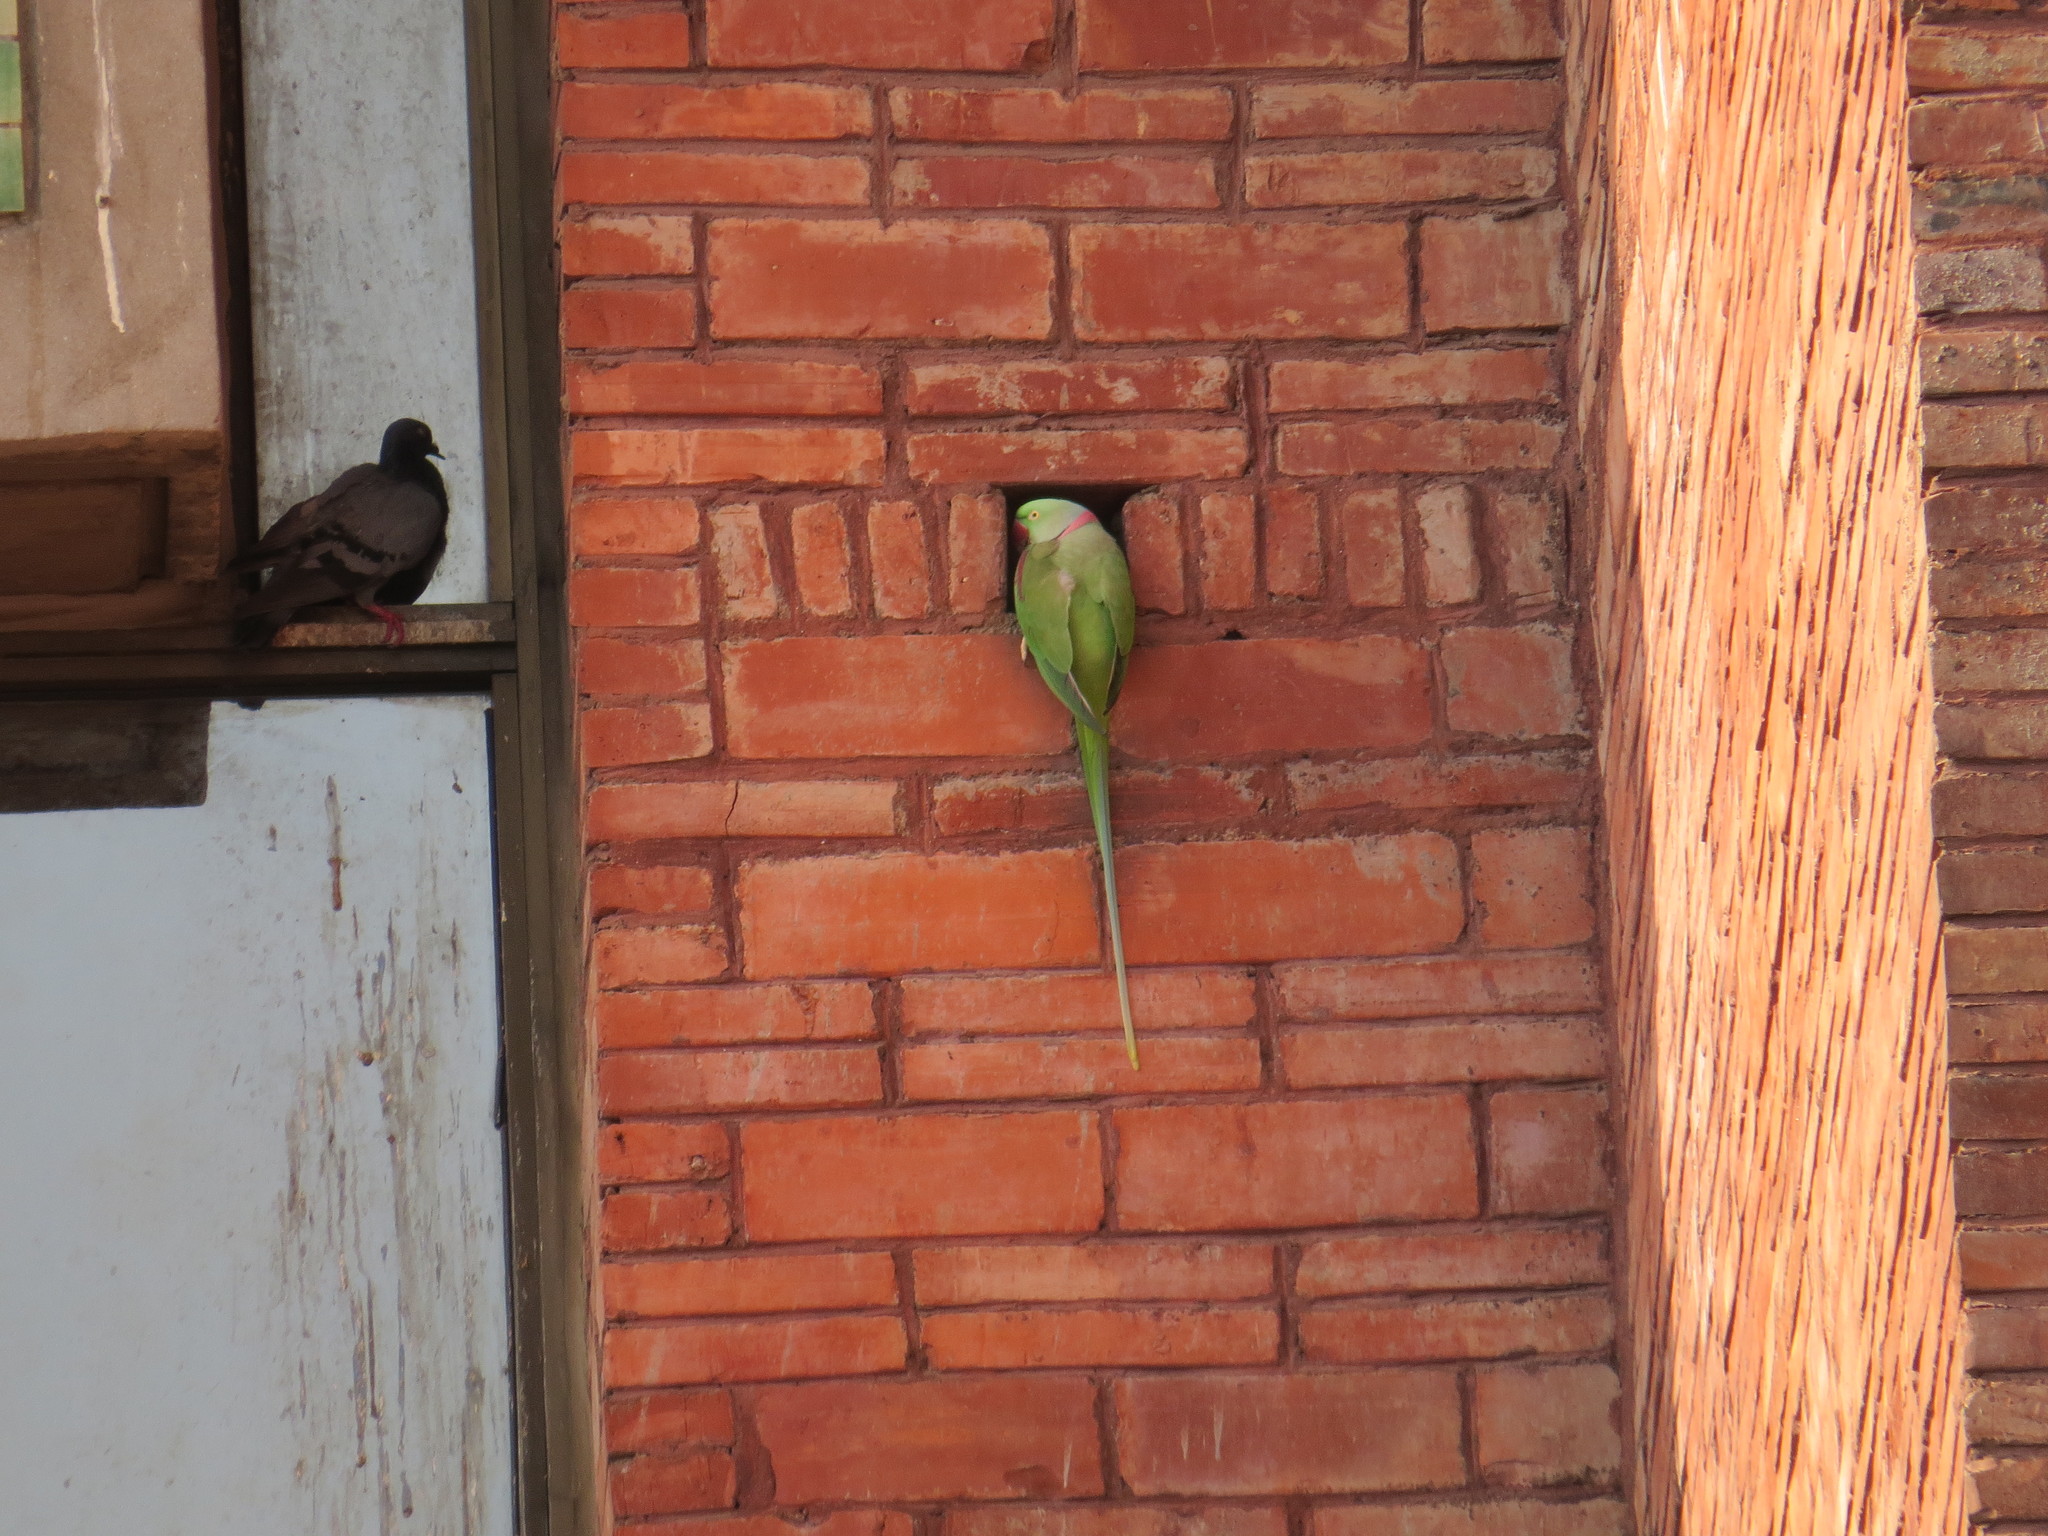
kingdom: Animalia
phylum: Chordata
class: Aves
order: Psittaciformes
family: Psittacidae
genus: Psittacula
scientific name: Psittacula eupatria
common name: Alexandrine parakeet
